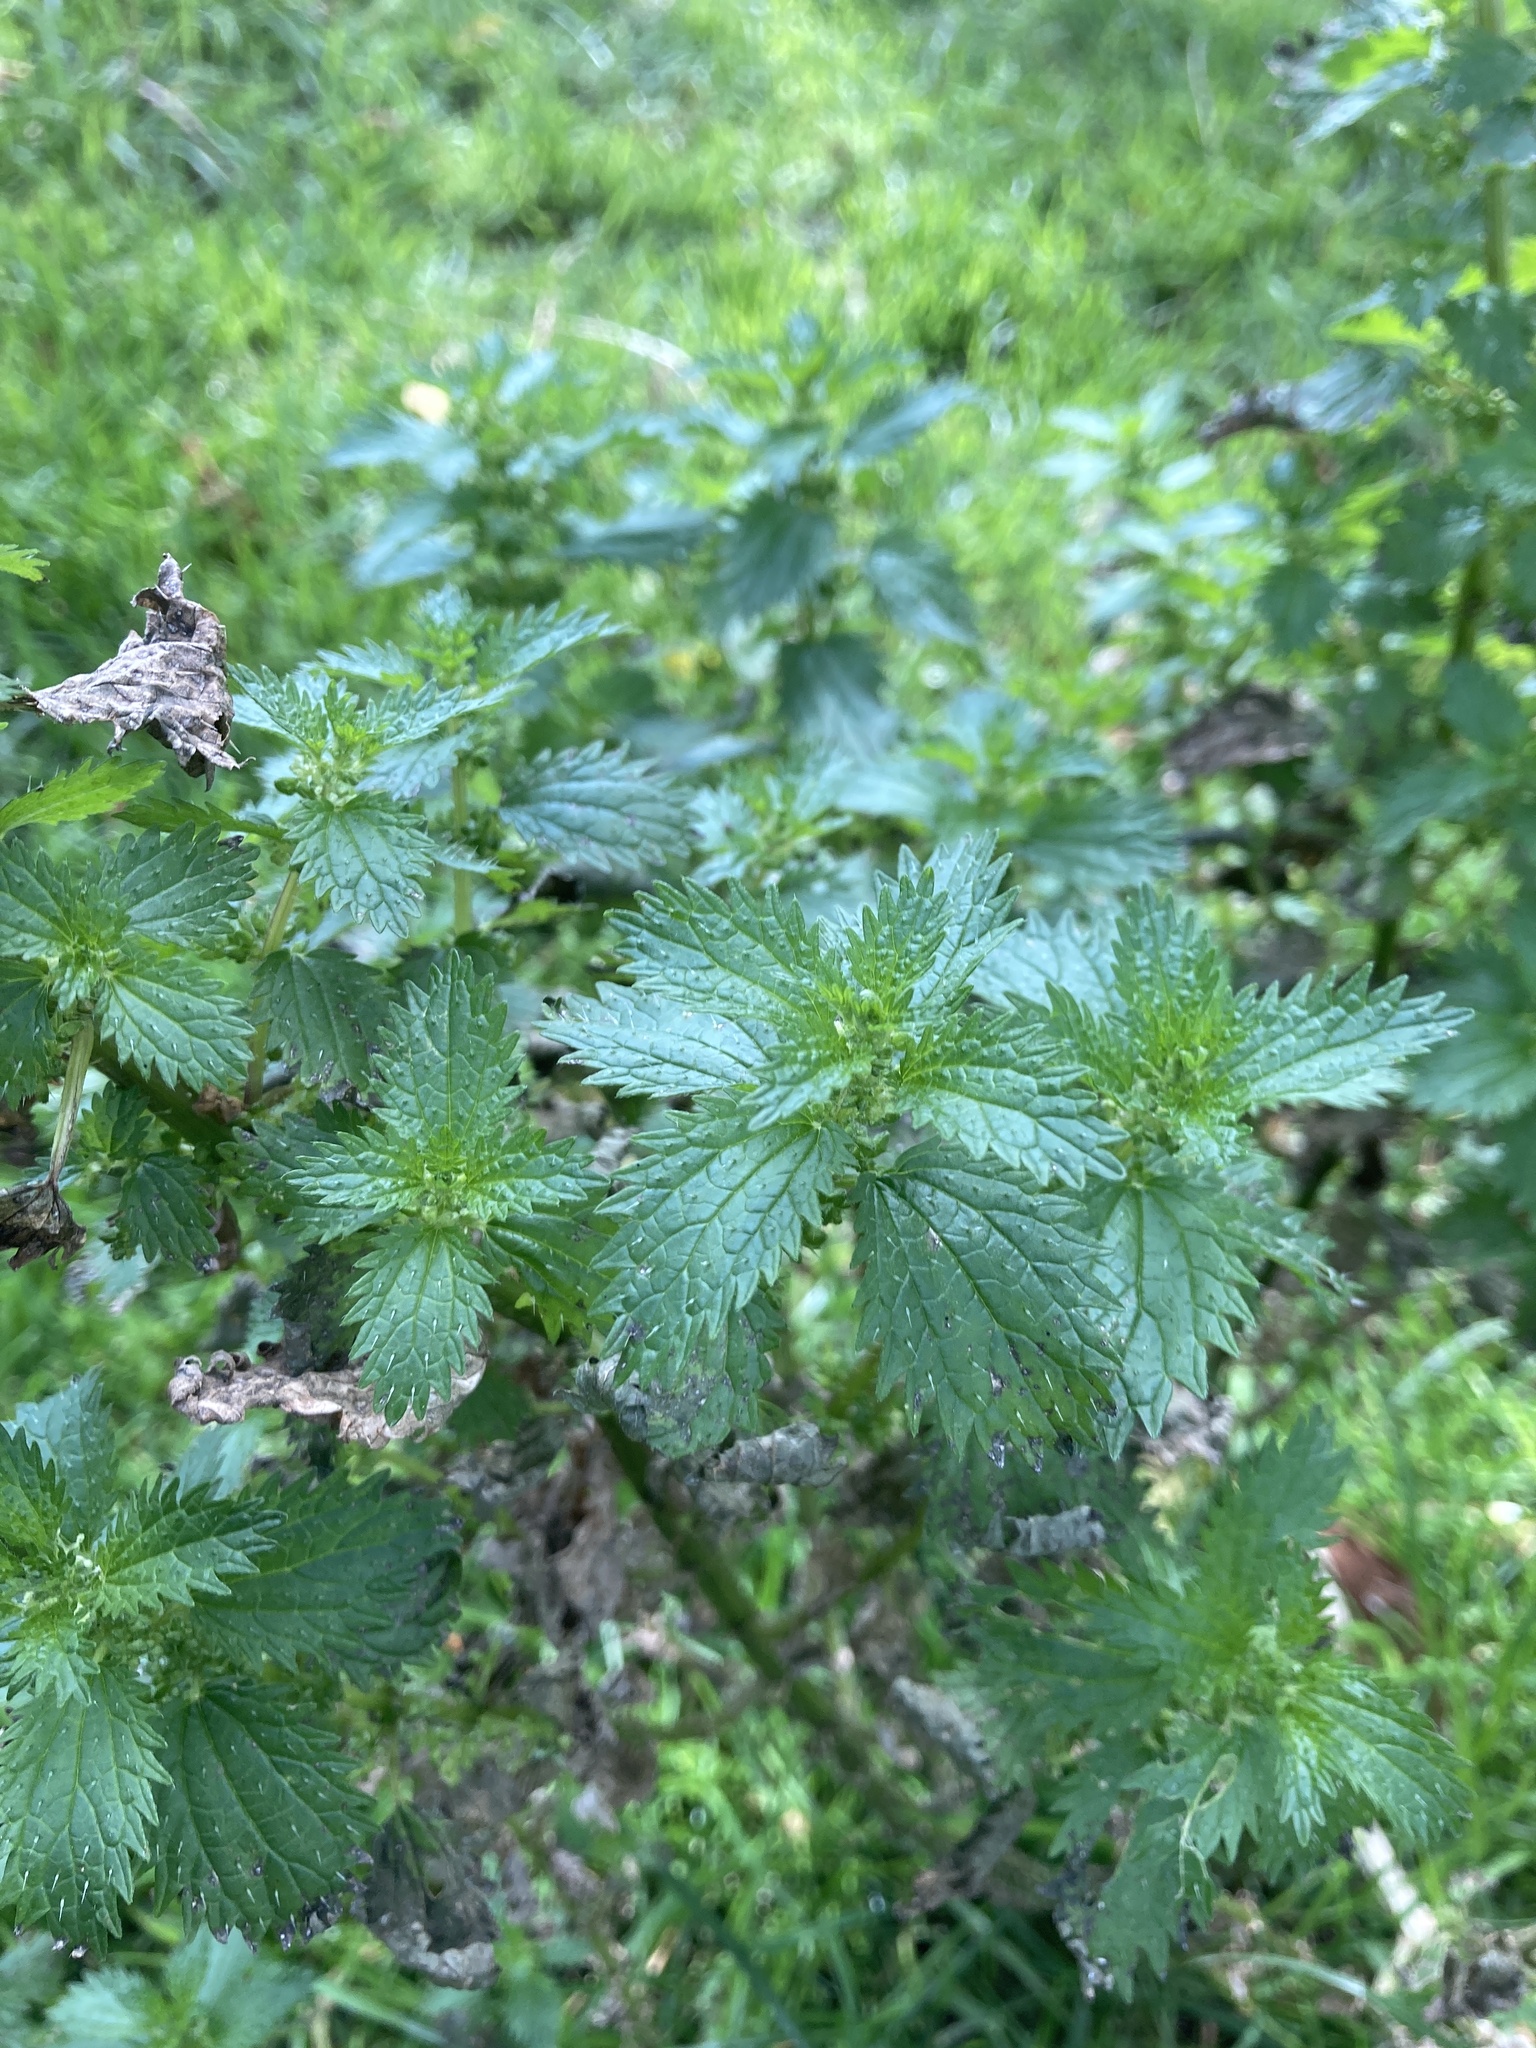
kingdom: Plantae
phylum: Tracheophyta
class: Magnoliopsida
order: Rosales
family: Urticaceae
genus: Urtica
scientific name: Urtica urens
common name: Dwarf nettle
